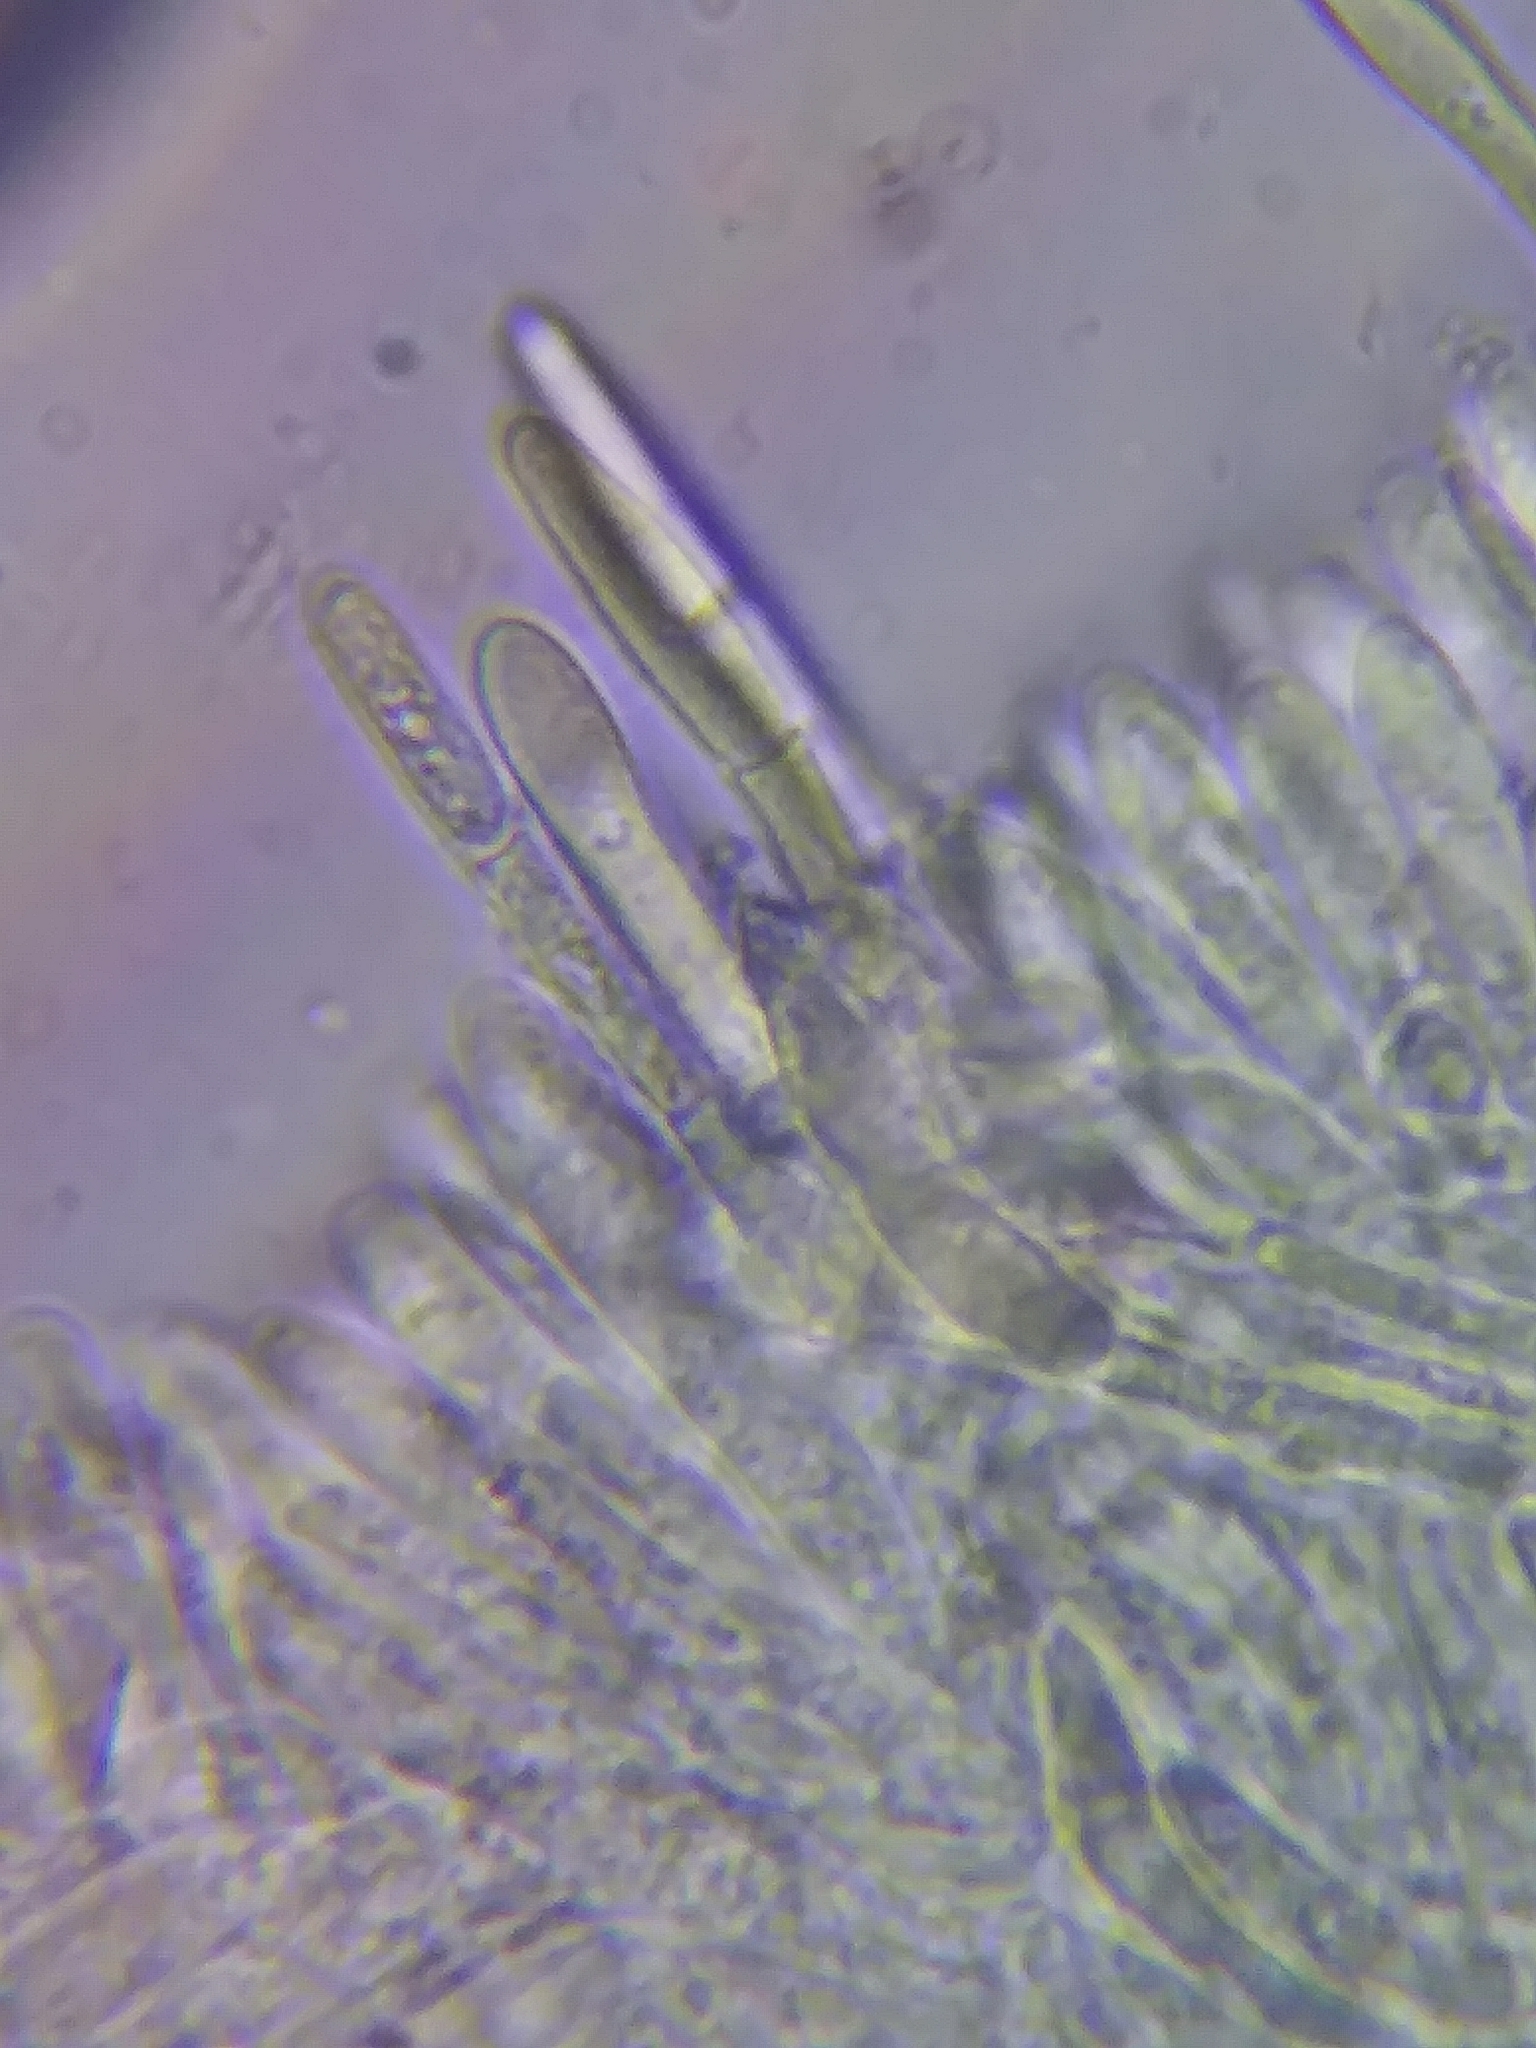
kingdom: Fungi
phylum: Ascomycota
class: Leotiomycetes
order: Helotiales
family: Lachnaceae
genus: Dasyscyphella
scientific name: Dasyscyphella nivea
